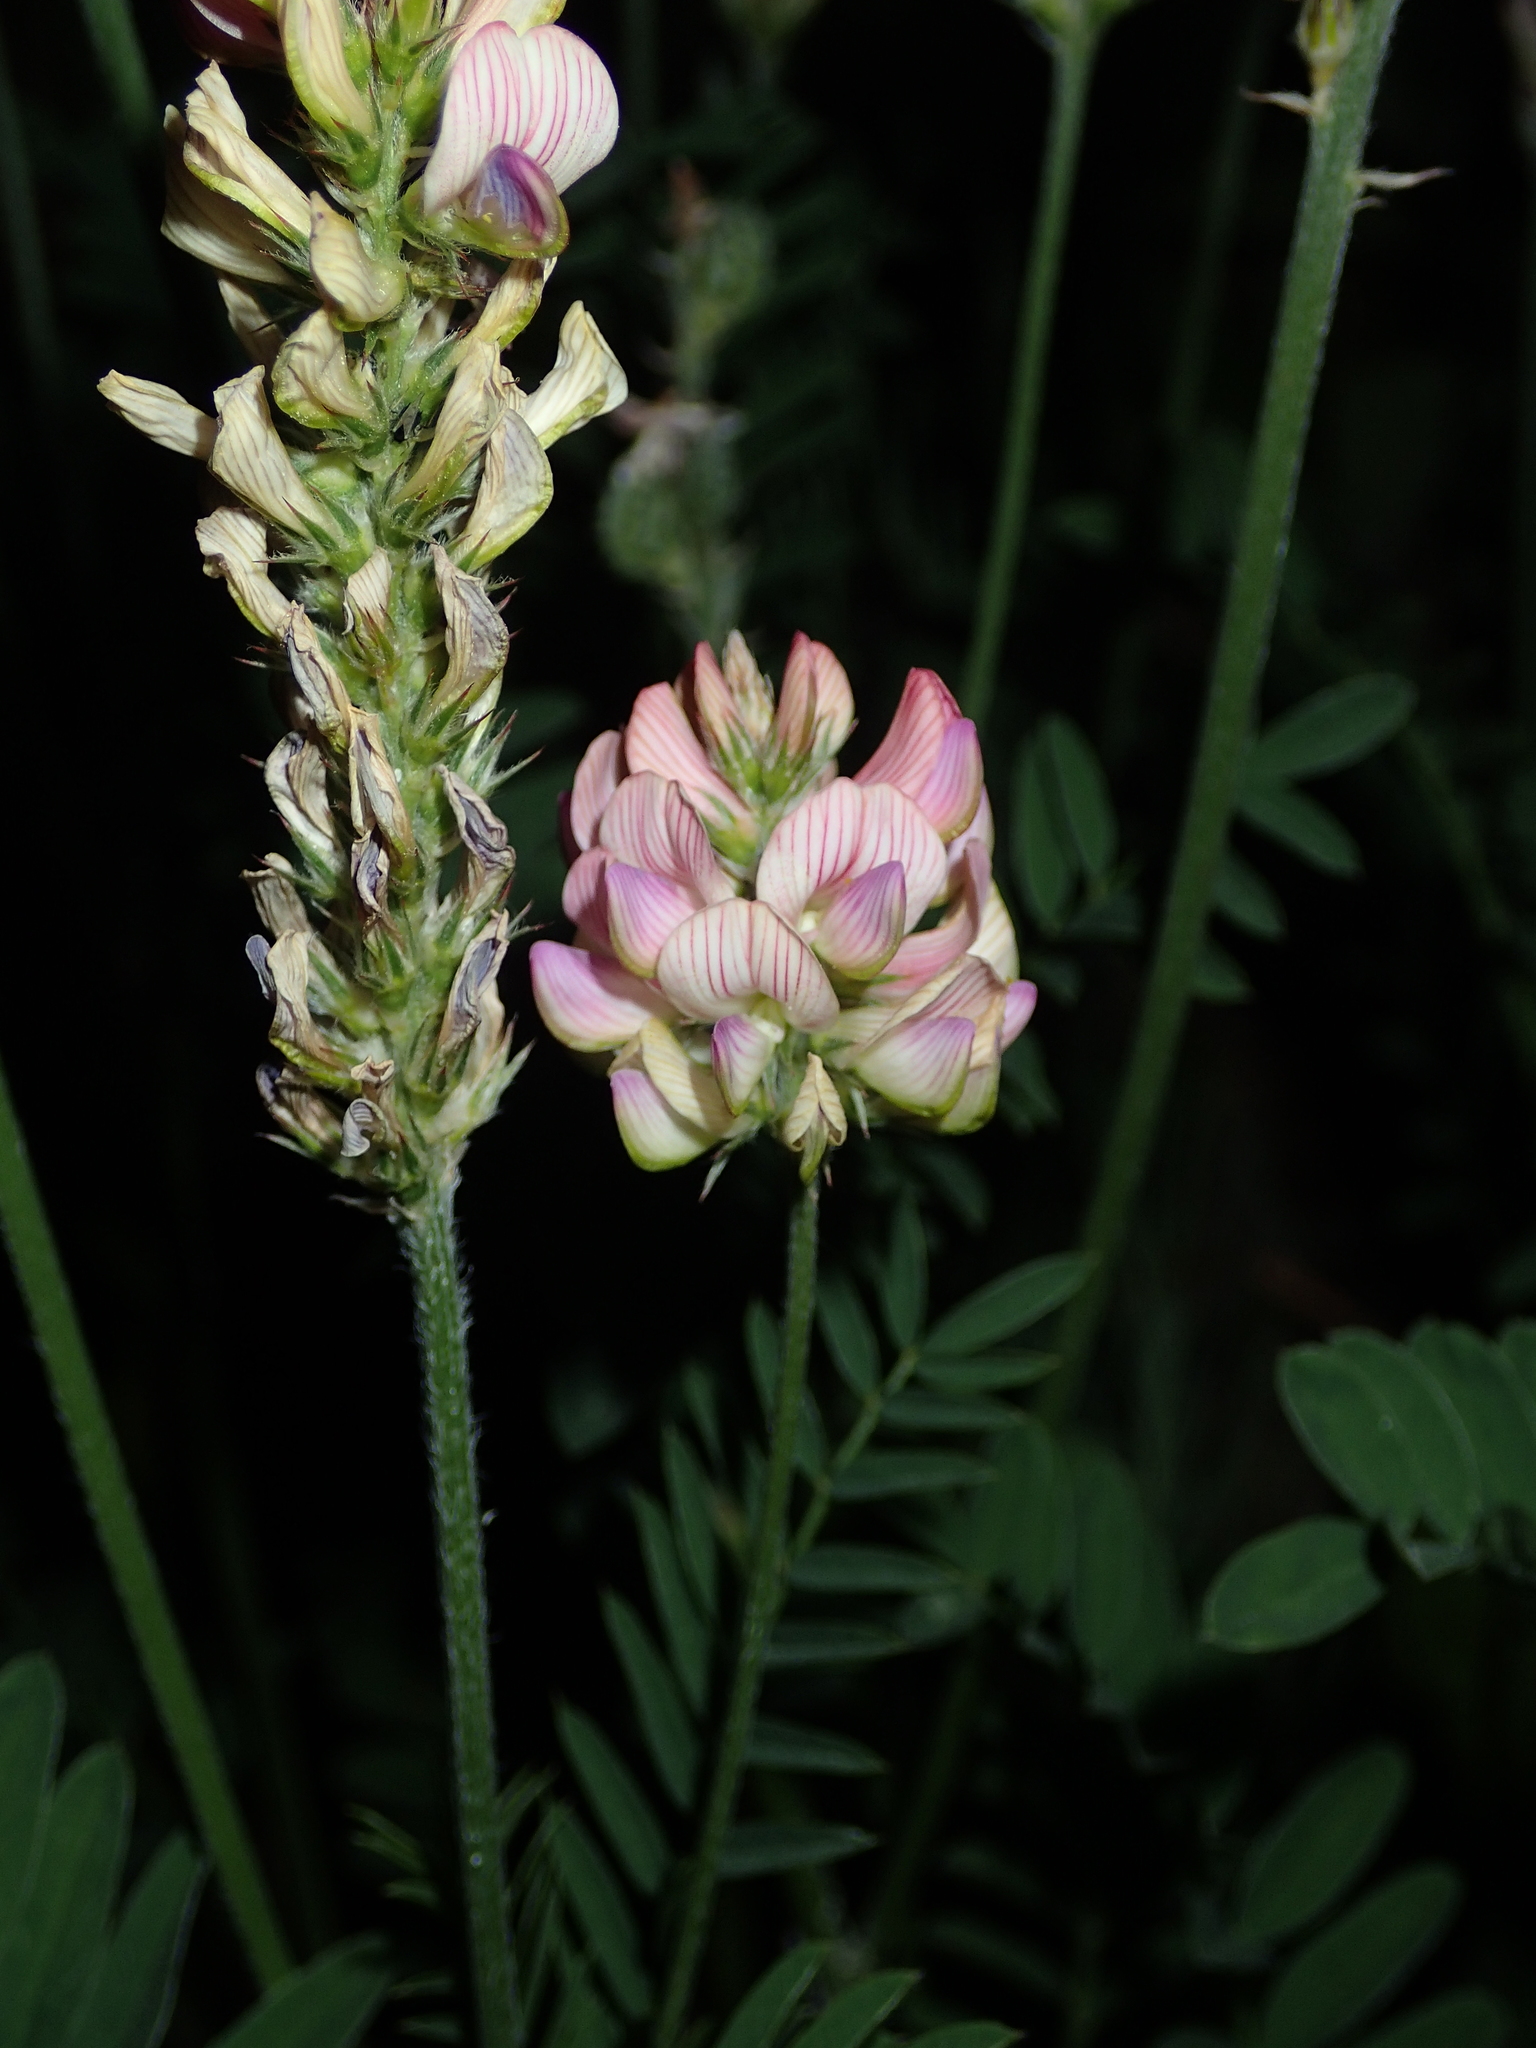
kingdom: Plantae
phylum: Tracheophyta
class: Magnoliopsida
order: Fabales
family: Fabaceae
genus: Onobrychis
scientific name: Onobrychis viciifolia
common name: Sainfoin
